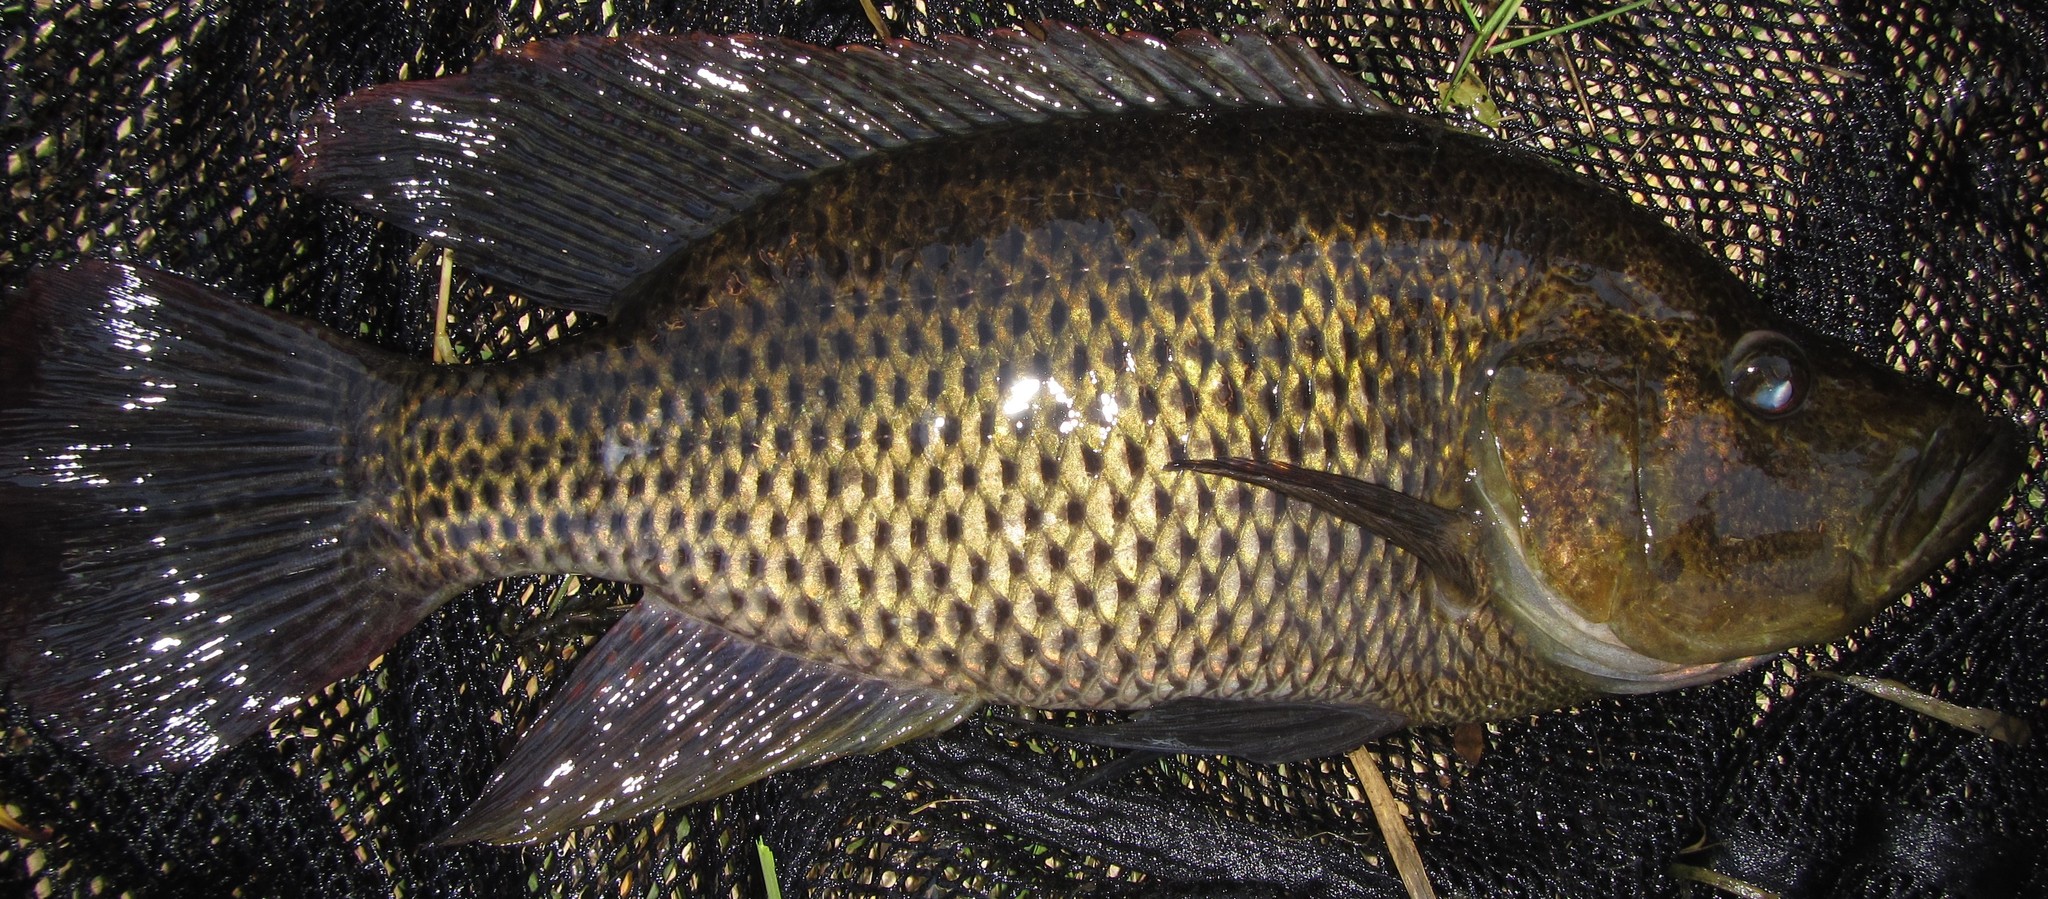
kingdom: Animalia
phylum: Chordata
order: Perciformes
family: Cichlidae
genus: Serranochromis
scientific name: Serranochromis altus
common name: Humpback largemouth
